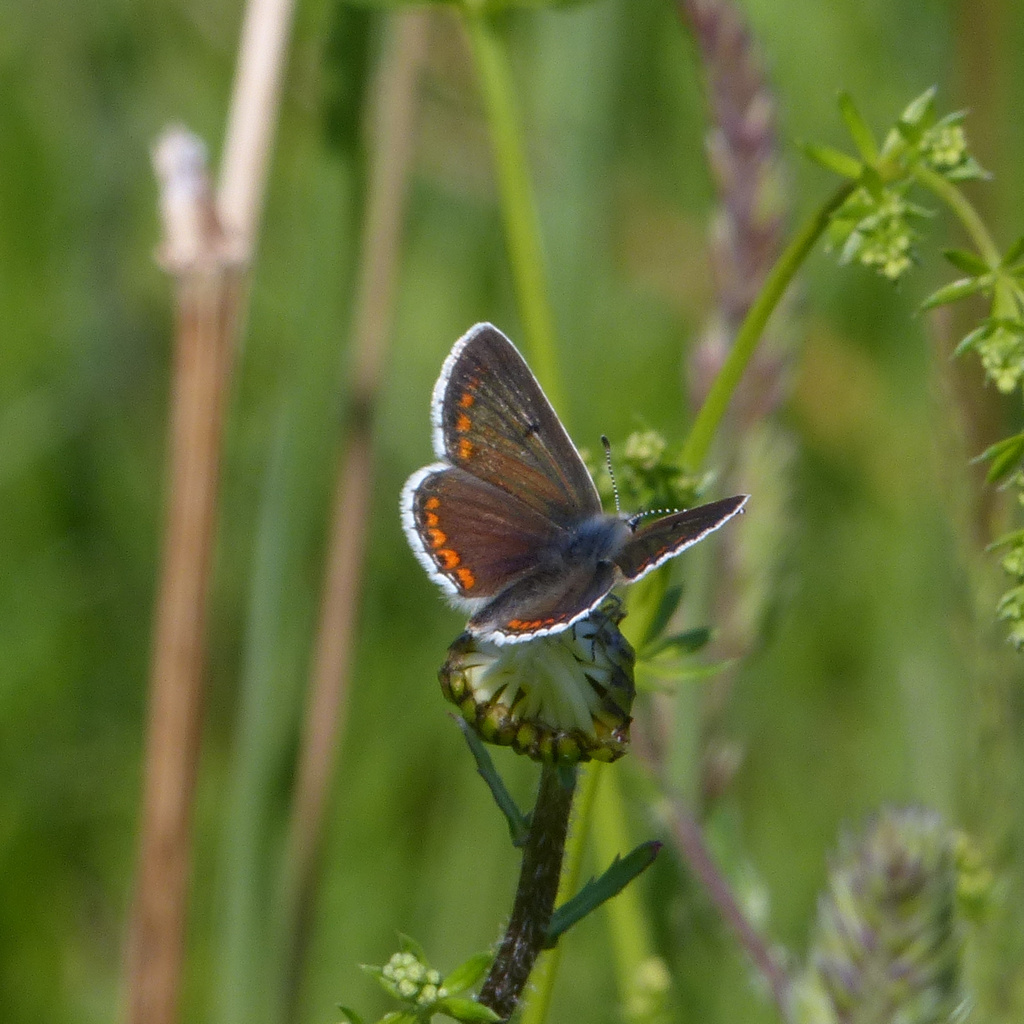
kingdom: Animalia
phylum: Arthropoda
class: Insecta
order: Lepidoptera
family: Lycaenidae
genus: Aricia
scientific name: Aricia agestis
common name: Brown argus
